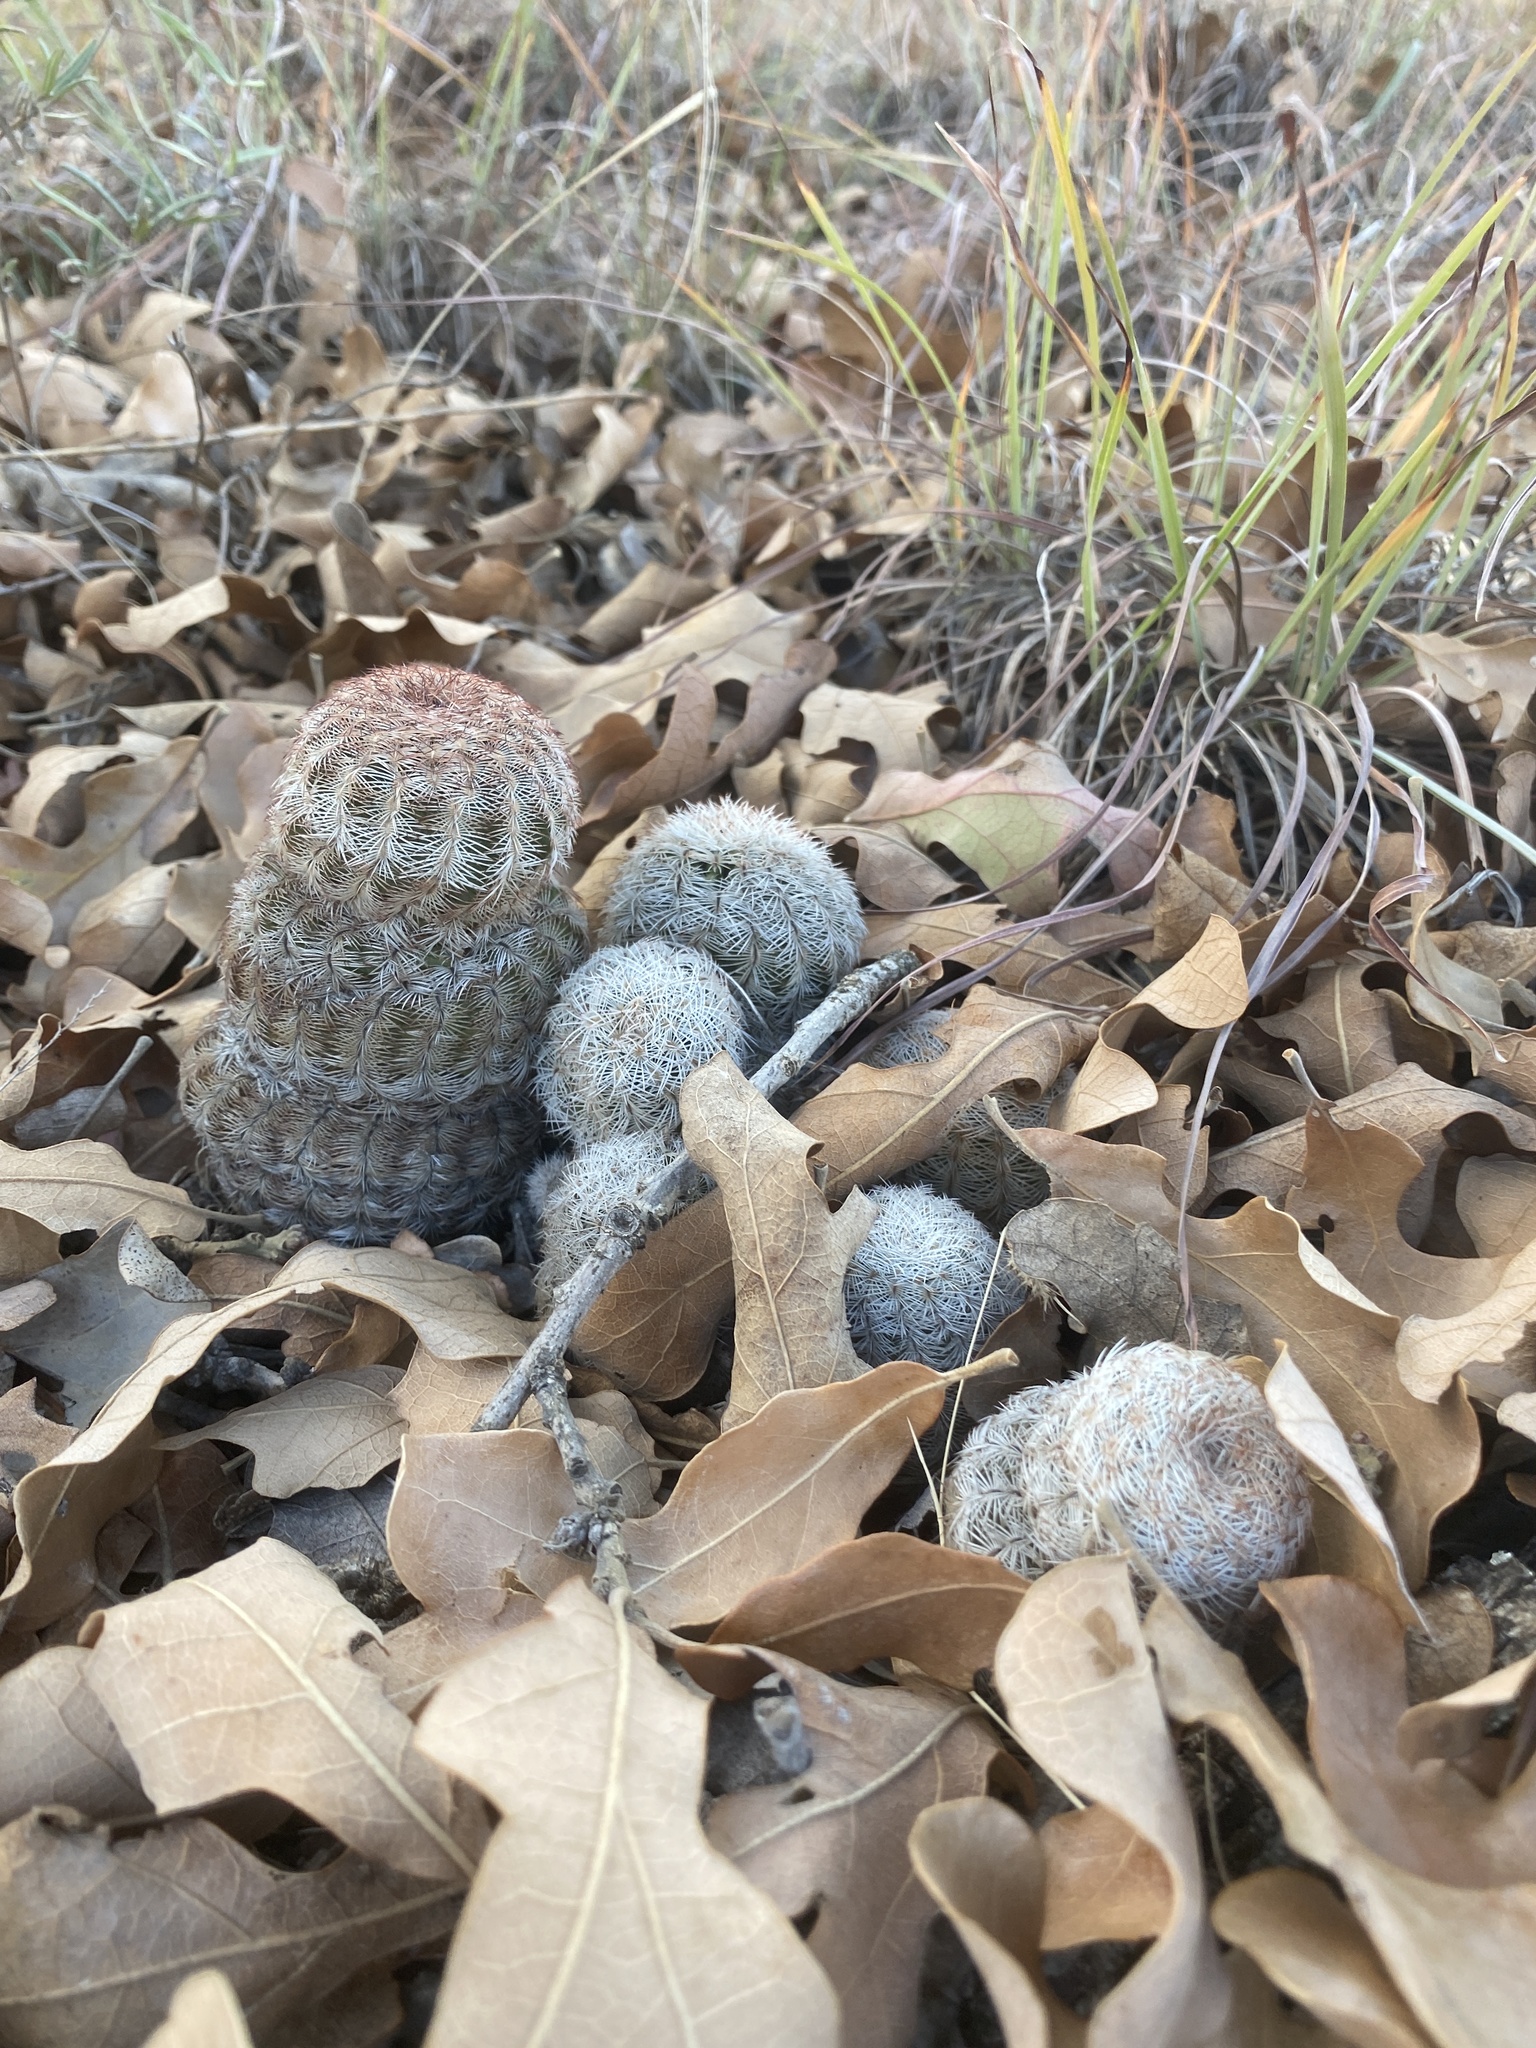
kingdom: Plantae
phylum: Tracheophyta
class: Magnoliopsida
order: Caryophyllales
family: Cactaceae
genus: Echinocereus
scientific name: Echinocereus reichenbachii
